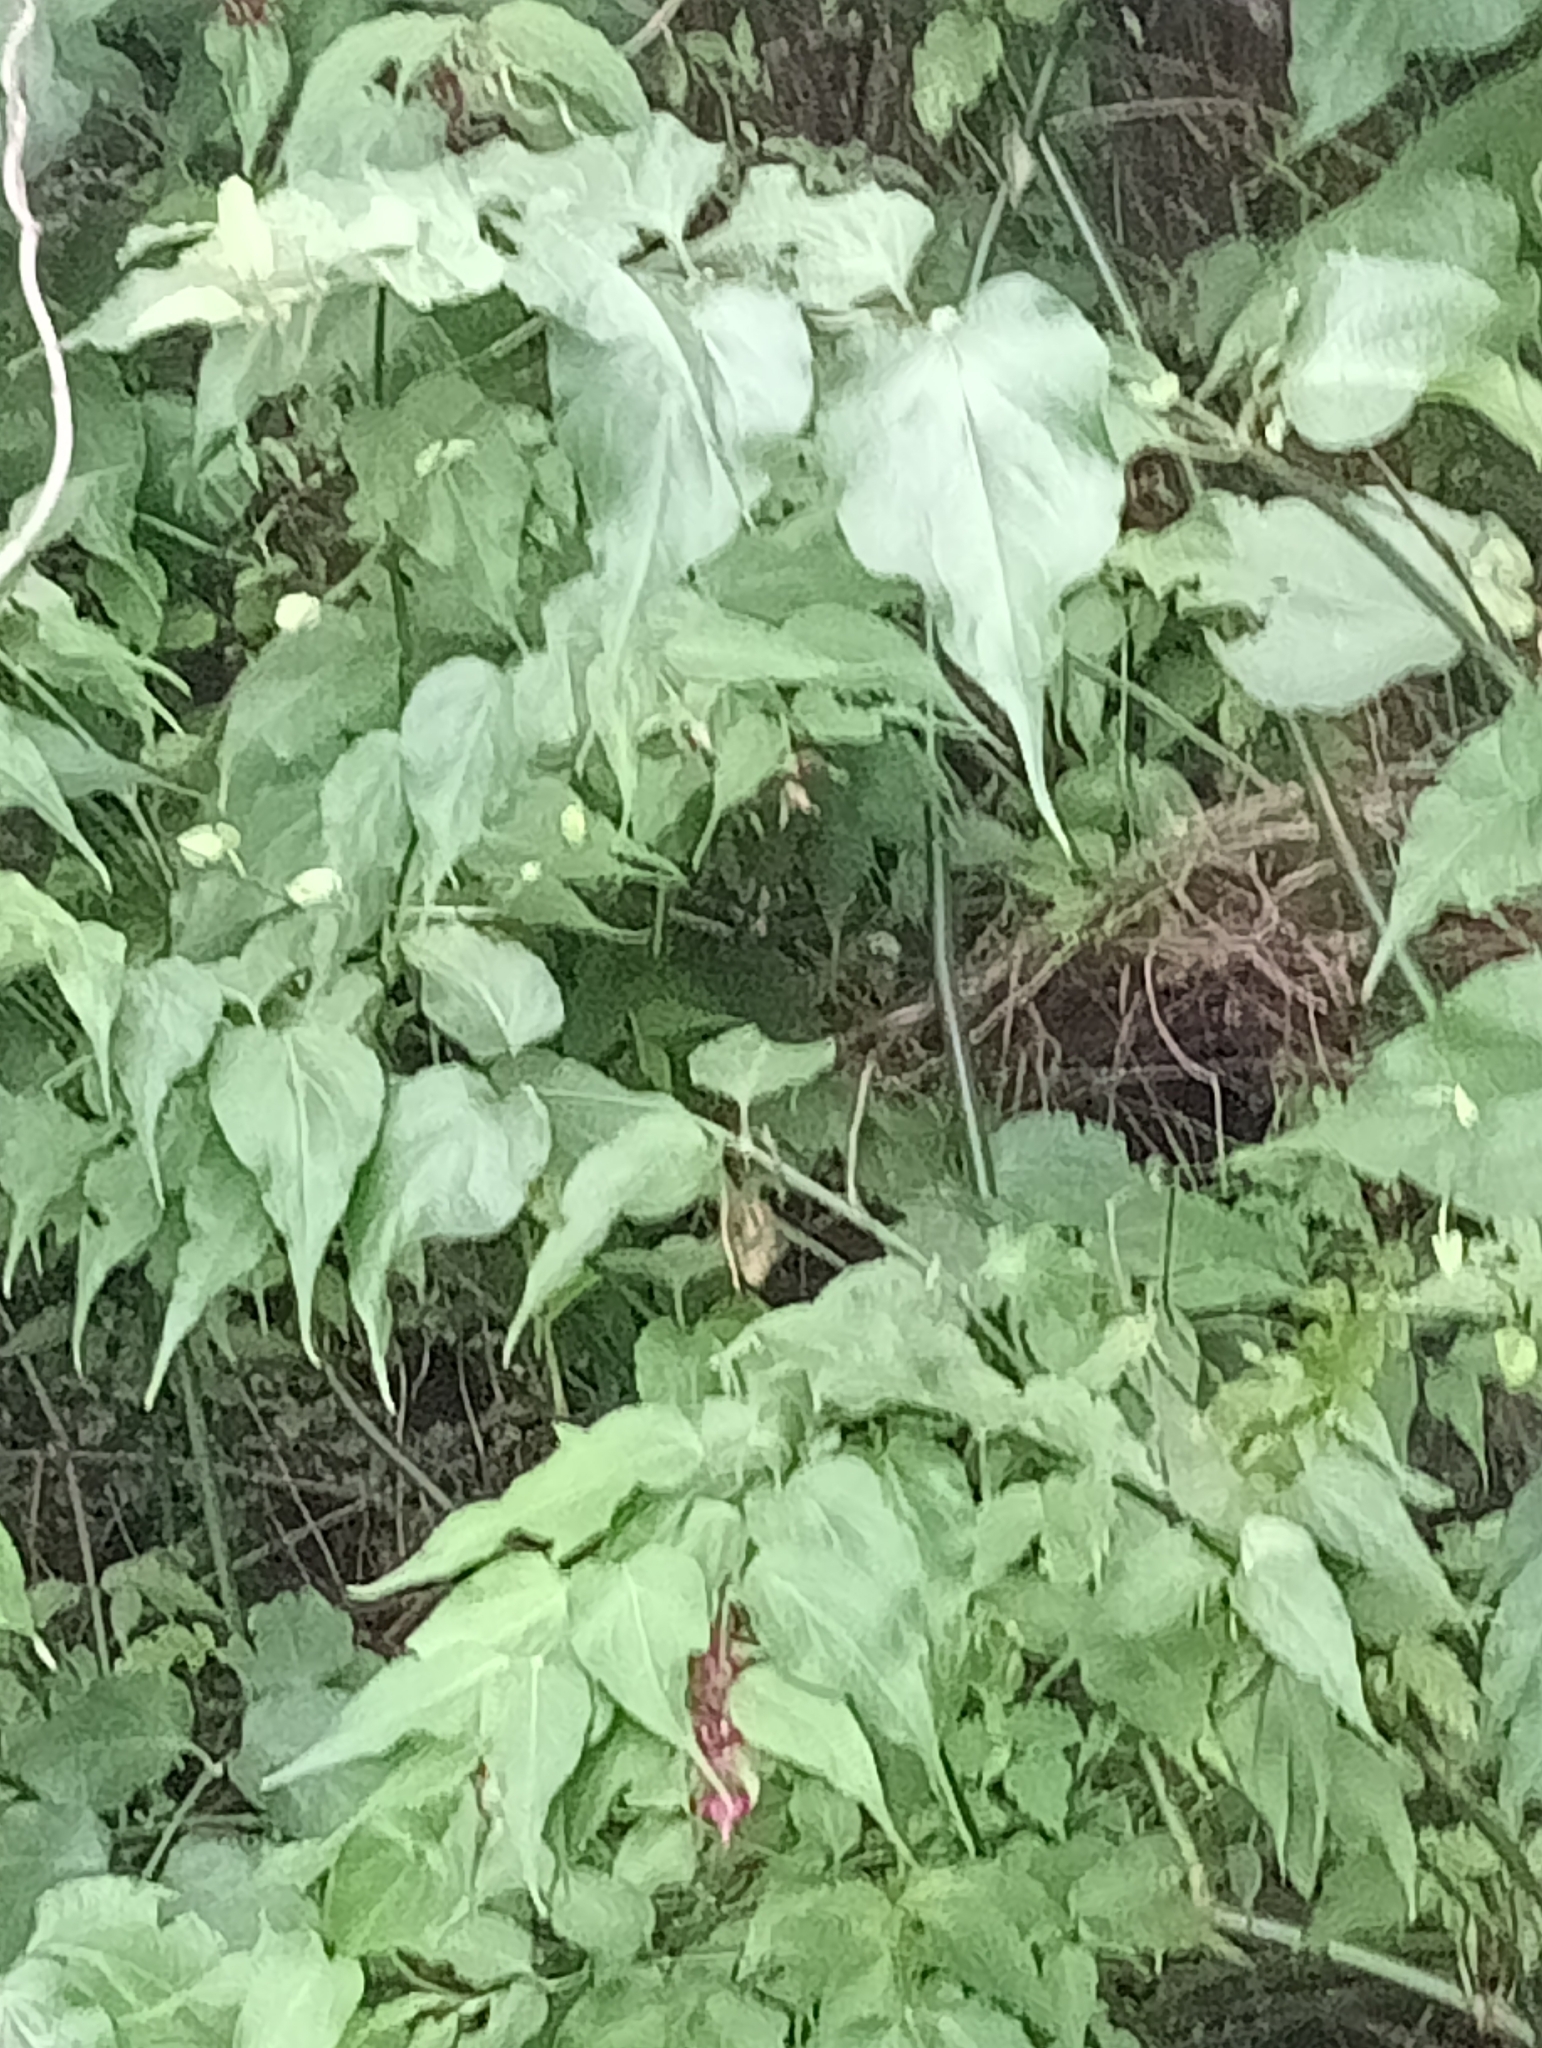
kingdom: Plantae
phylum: Tracheophyta
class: Magnoliopsida
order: Dipsacales
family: Caprifoliaceae
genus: Leycesteria
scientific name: Leycesteria formosa
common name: Himalayan honeysuckle
